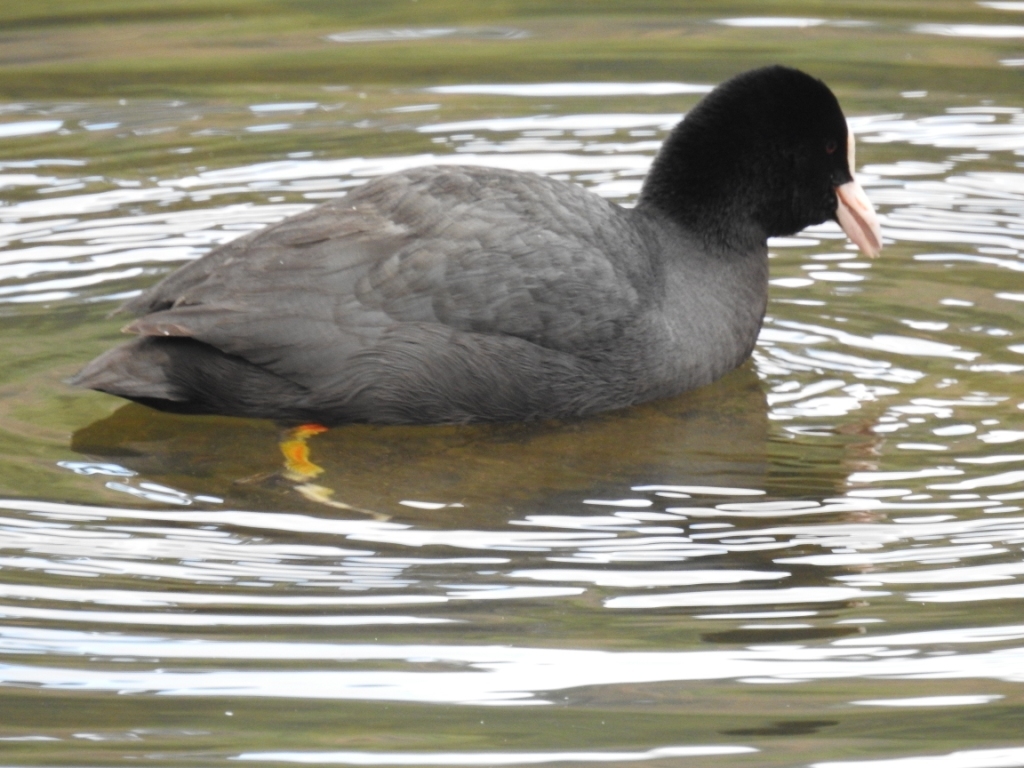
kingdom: Animalia
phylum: Chordata
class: Aves
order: Gruiformes
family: Rallidae
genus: Fulica
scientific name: Fulica atra
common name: Eurasian coot
